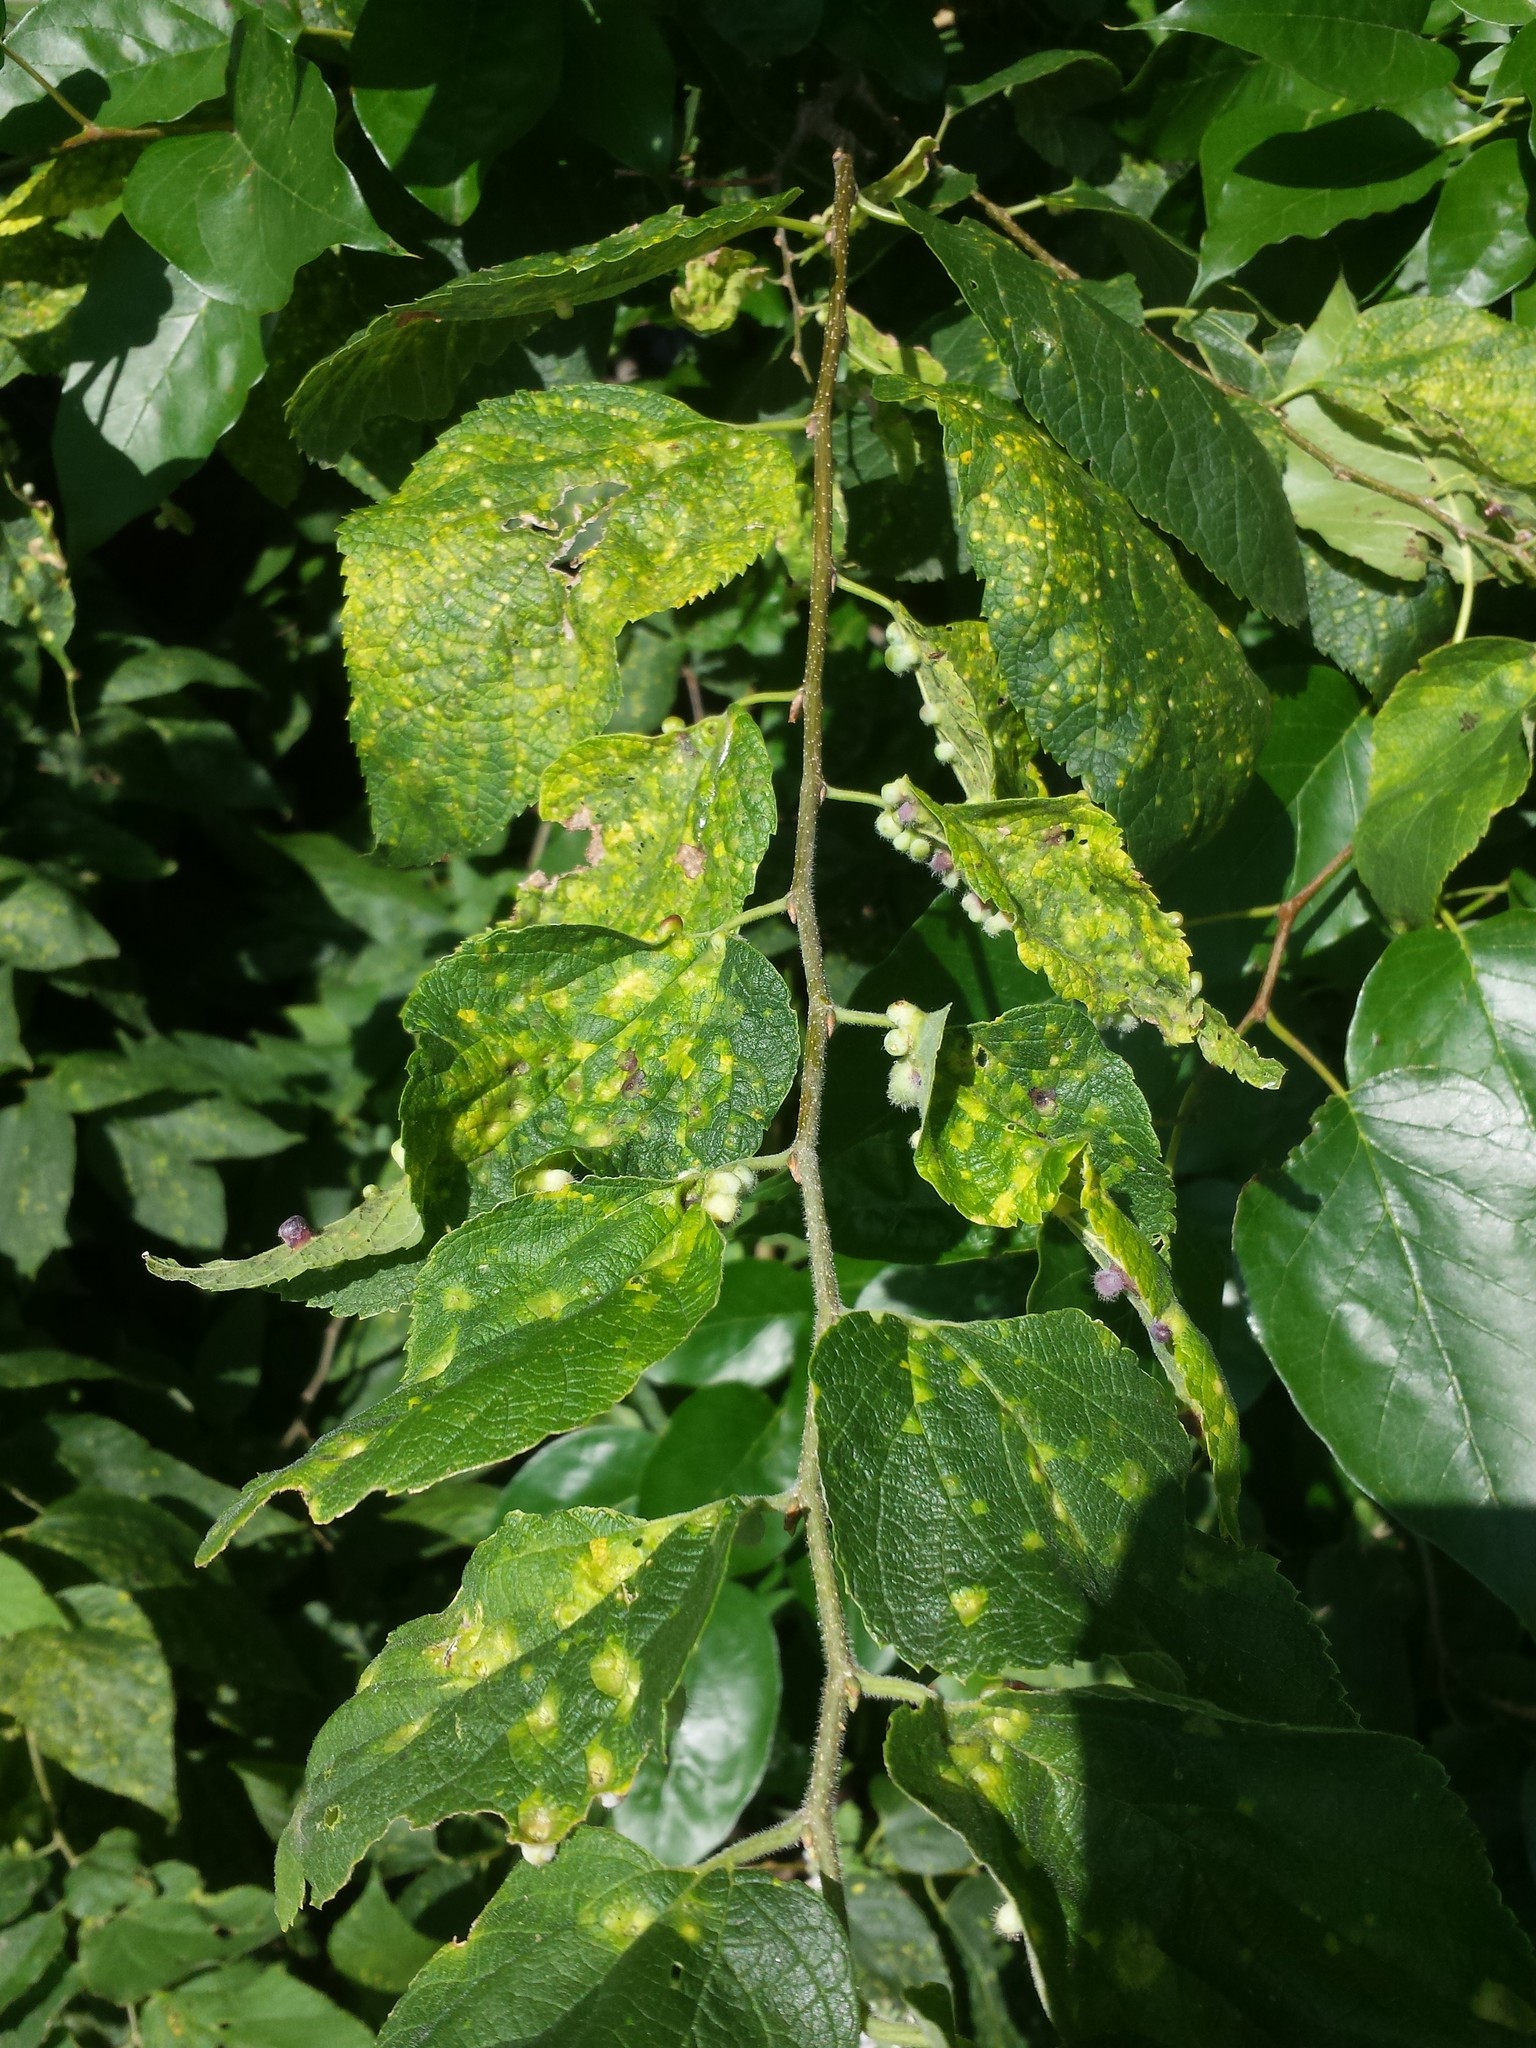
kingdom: Animalia
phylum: Arthropoda
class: Insecta
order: Hemiptera
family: Aphalaridae
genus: Pachypsylla
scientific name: Pachypsylla celtidismamma
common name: Hackberry nipplegall psyllid
